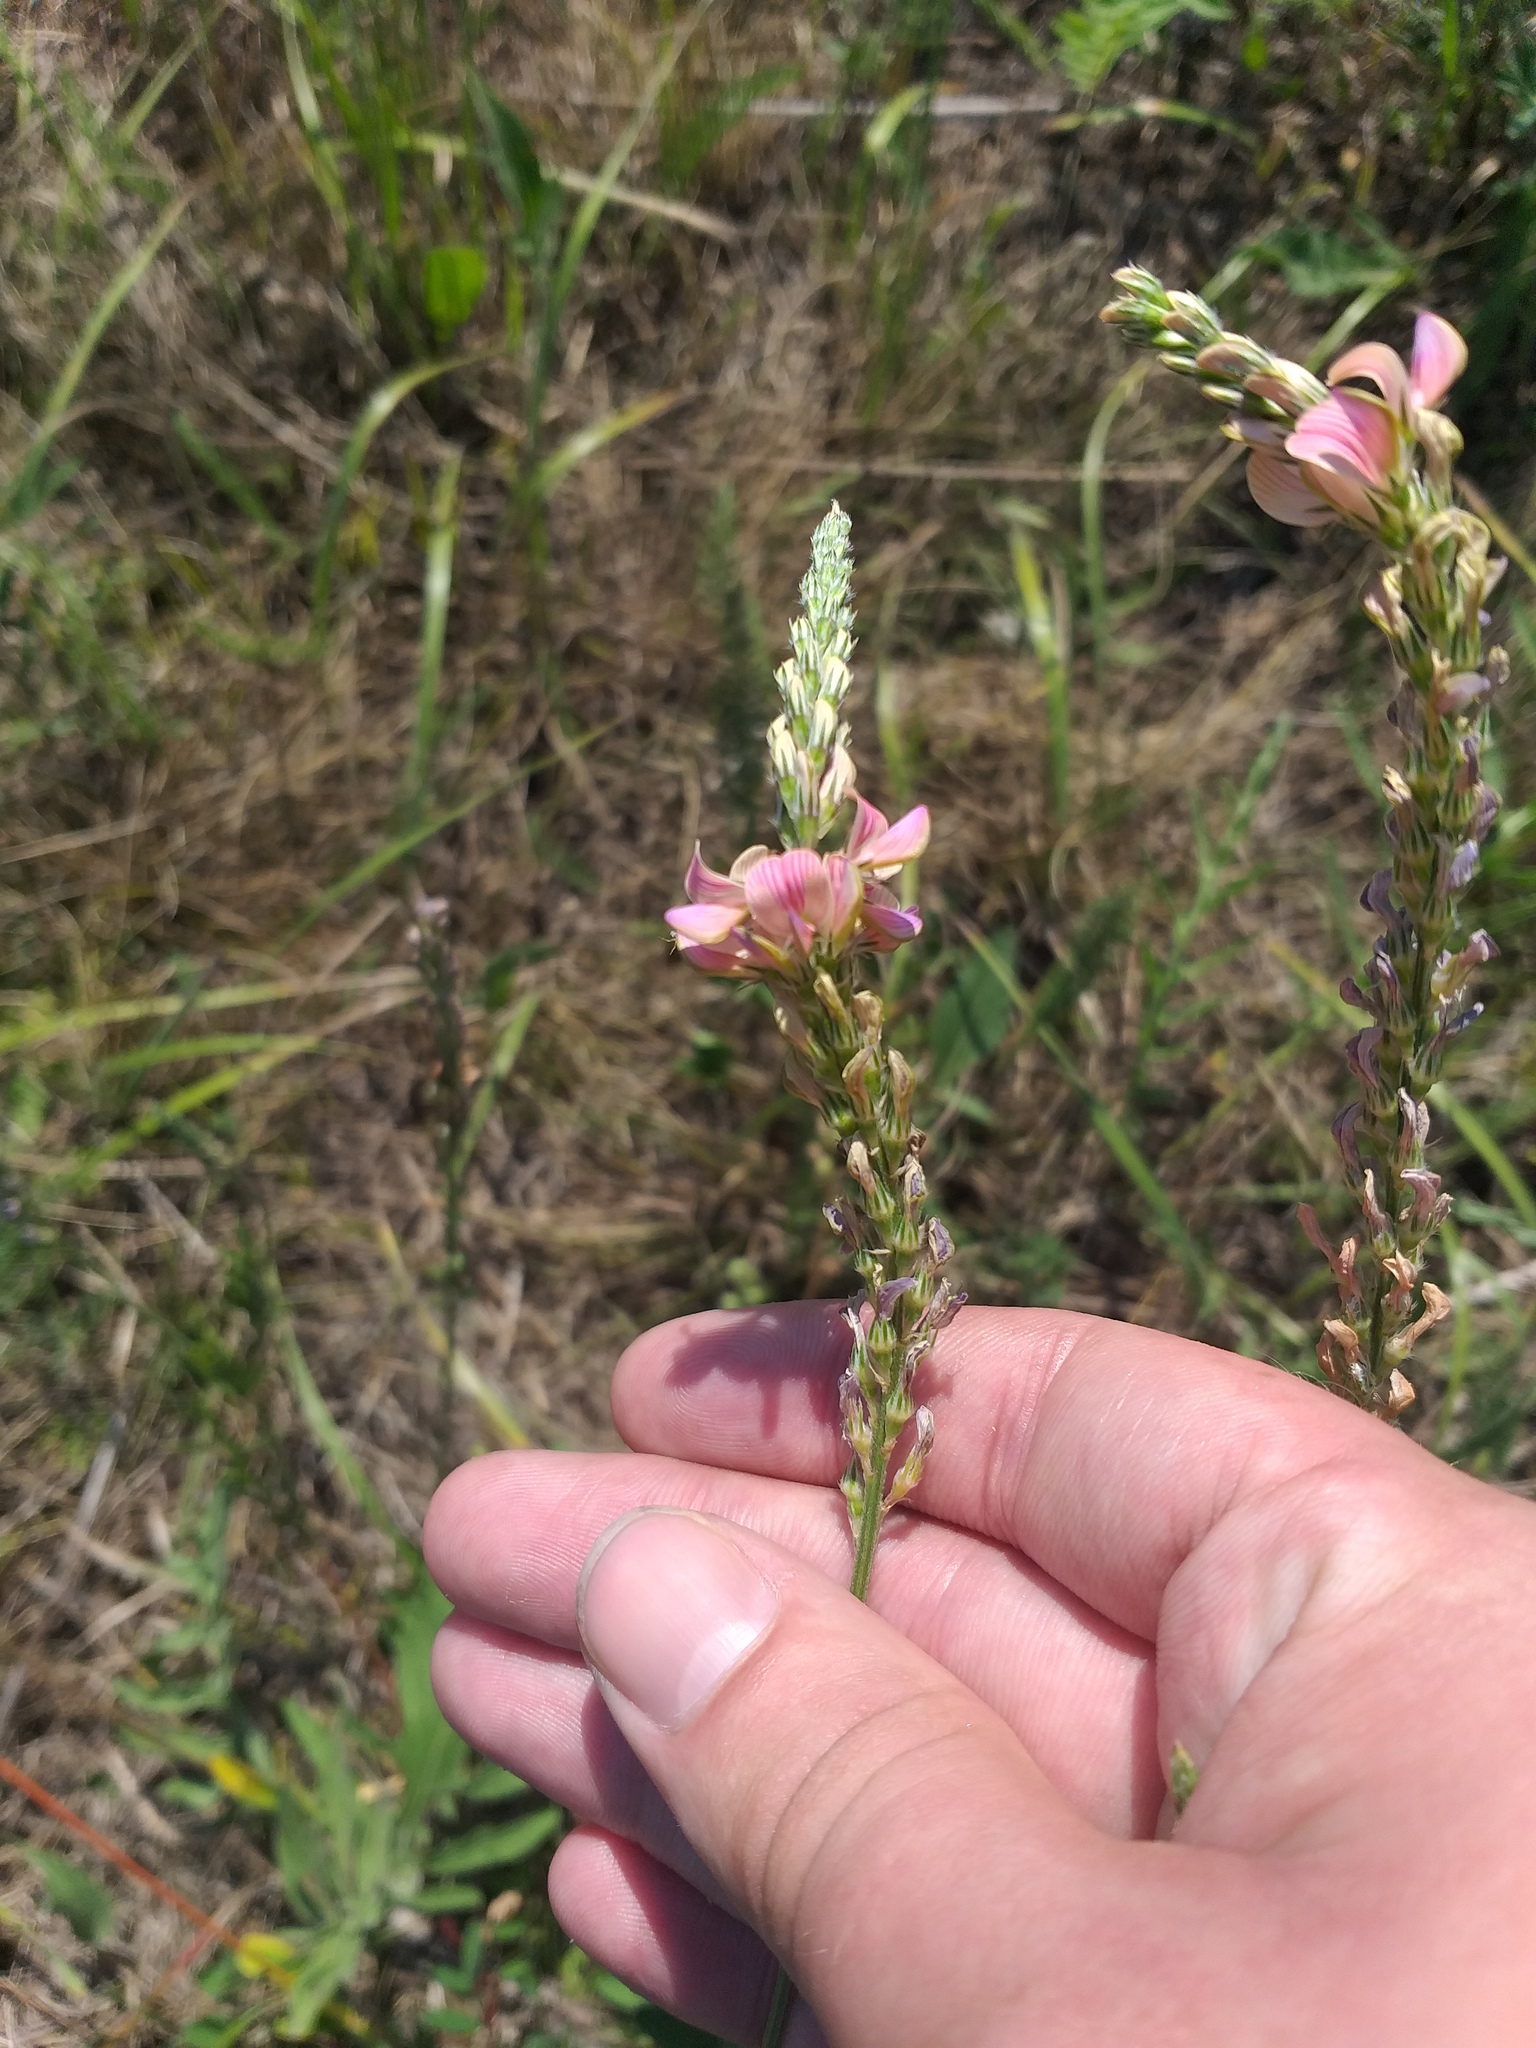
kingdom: Plantae
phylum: Tracheophyta
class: Magnoliopsida
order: Fabales
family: Fabaceae
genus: Onobrychis
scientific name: Onobrychis viciifolia
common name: Sainfoin
